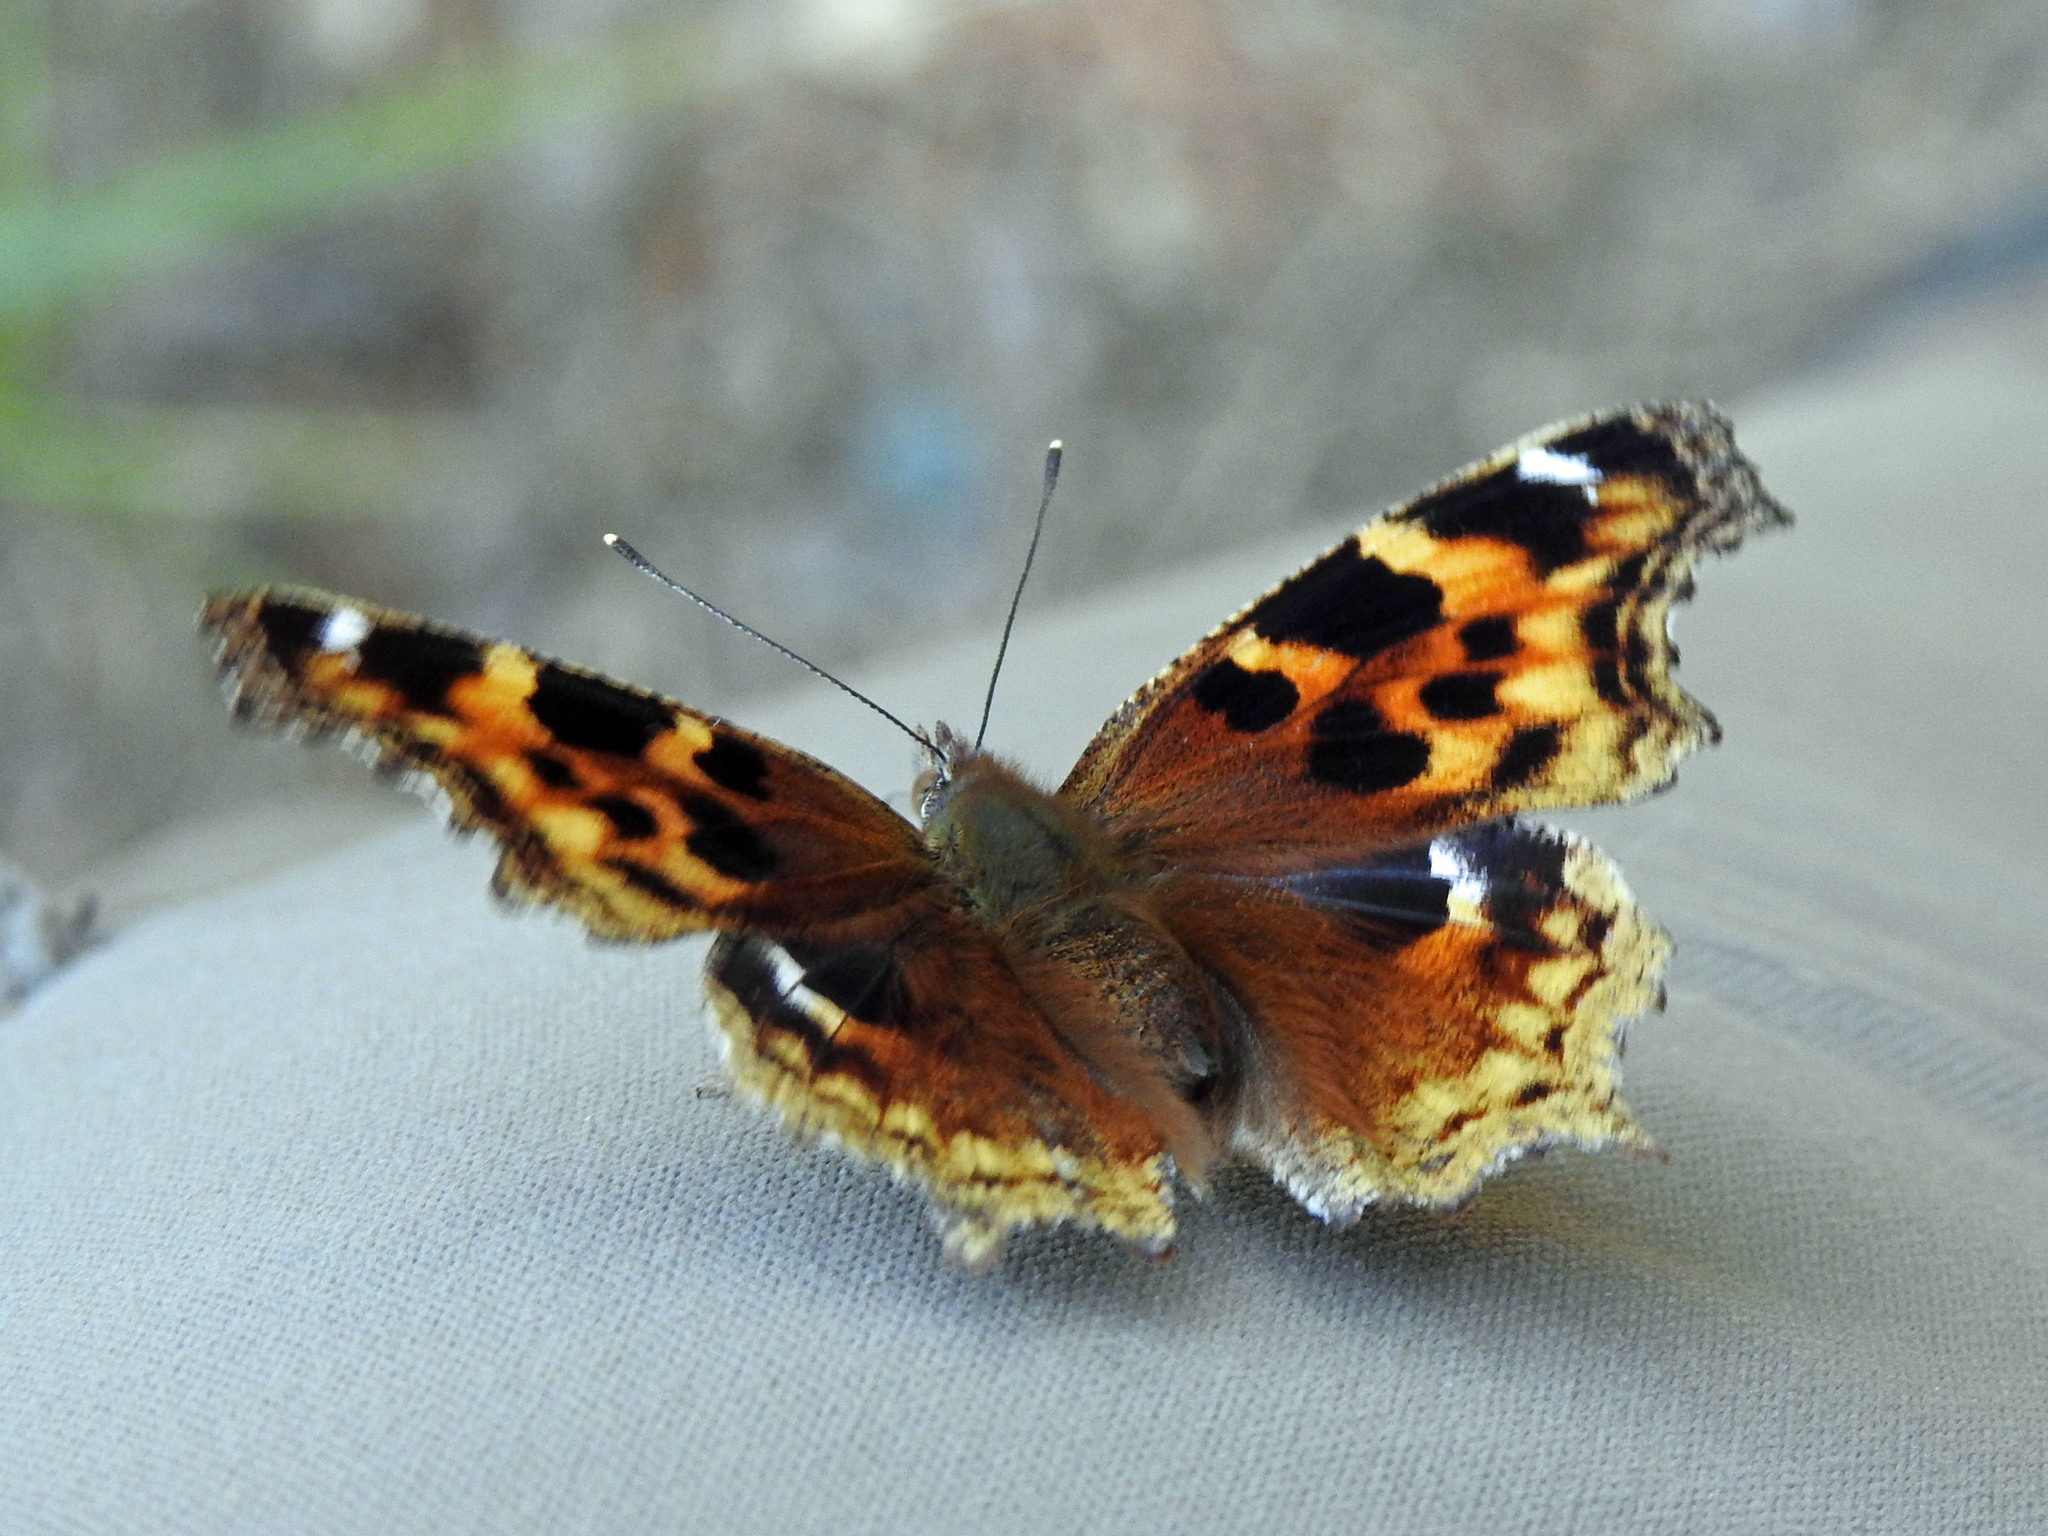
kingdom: Animalia
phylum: Arthropoda
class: Insecta
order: Lepidoptera
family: Nymphalidae
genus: Polygonia
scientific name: Polygonia vaualbum
